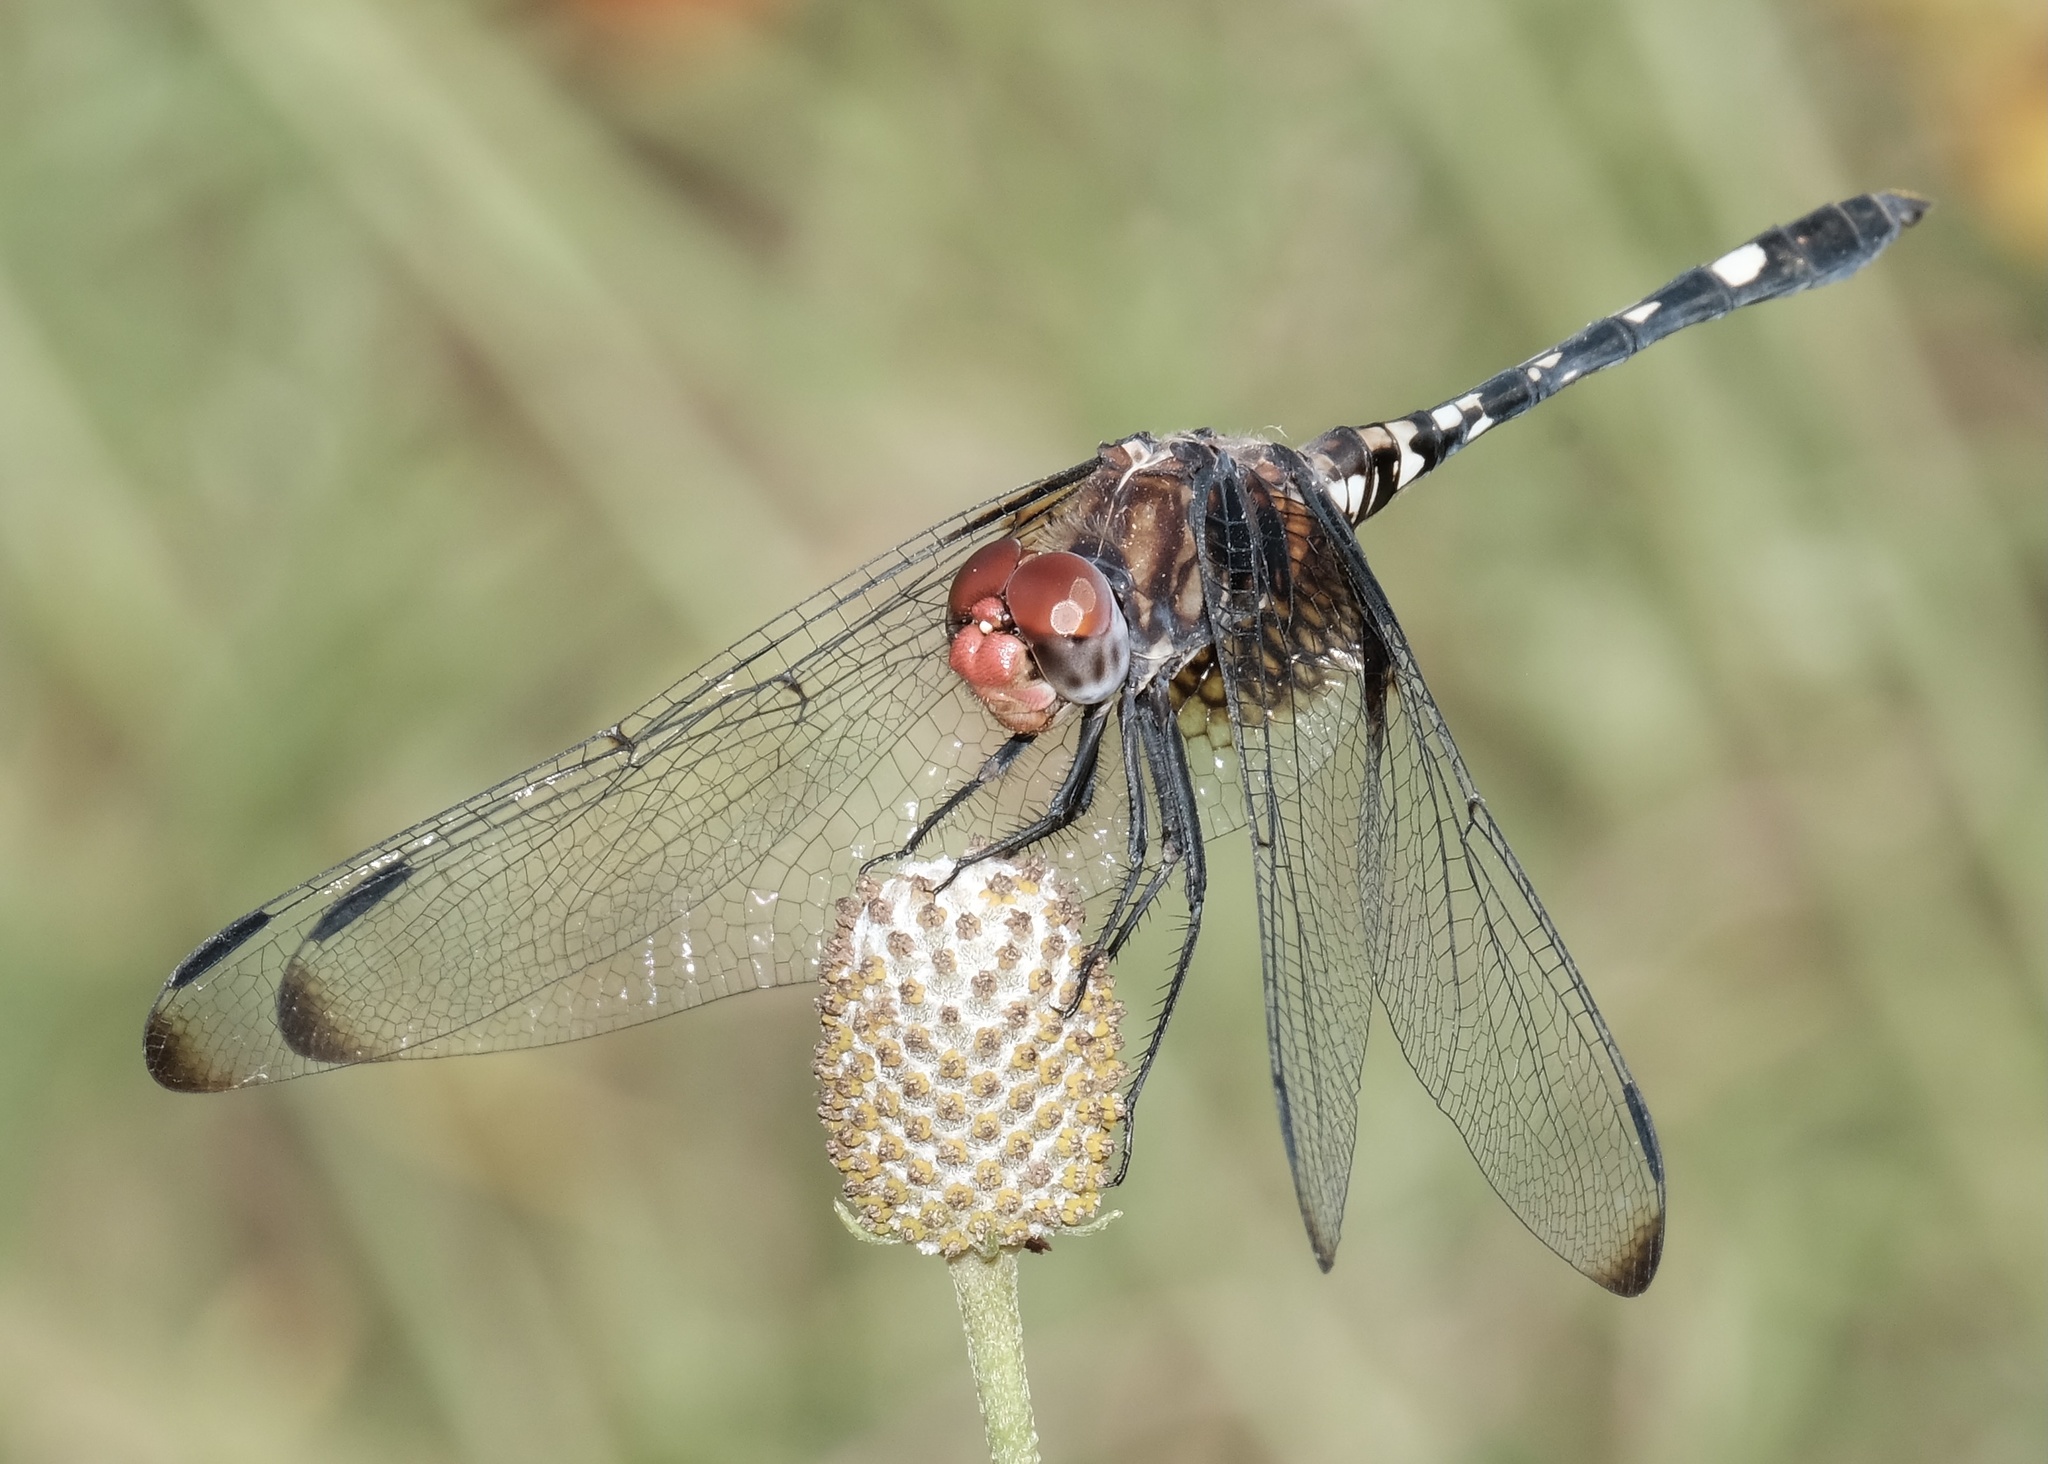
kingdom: Animalia
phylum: Arthropoda
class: Insecta
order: Odonata
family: Libellulidae
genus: Dythemis
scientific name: Dythemis fugax
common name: Checkered setwing
